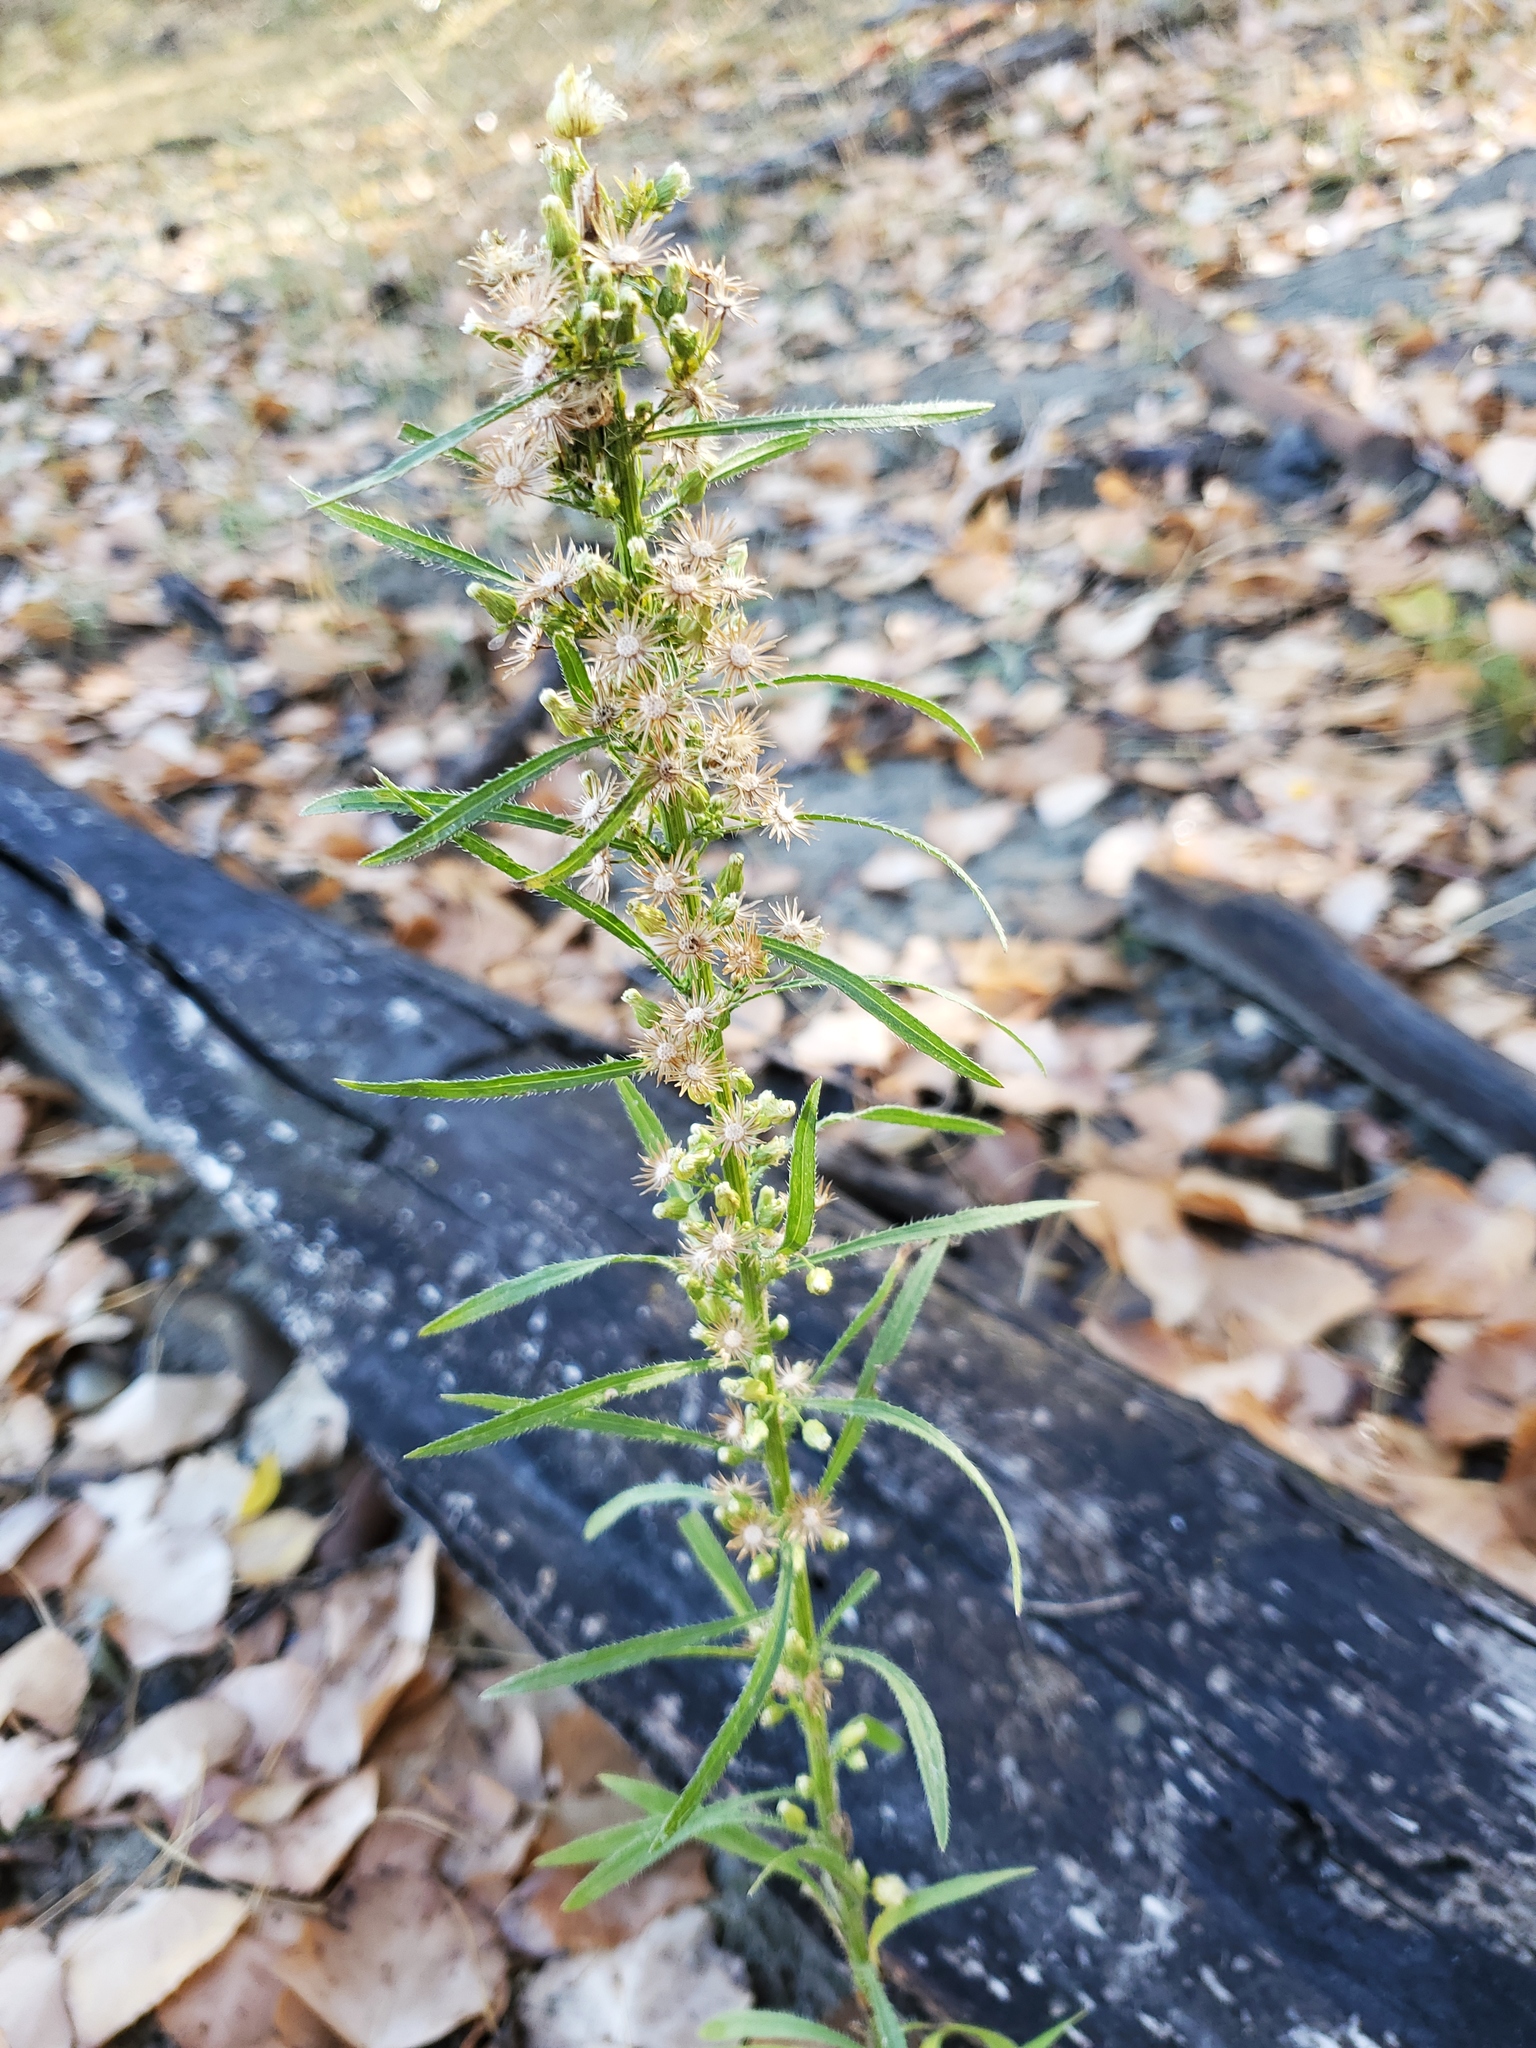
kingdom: Plantae
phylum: Tracheophyta
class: Magnoliopsida
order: Asterales
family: Asteraceae
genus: Erigeron
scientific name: Erigeron canadensis
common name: Canadian fleabane
